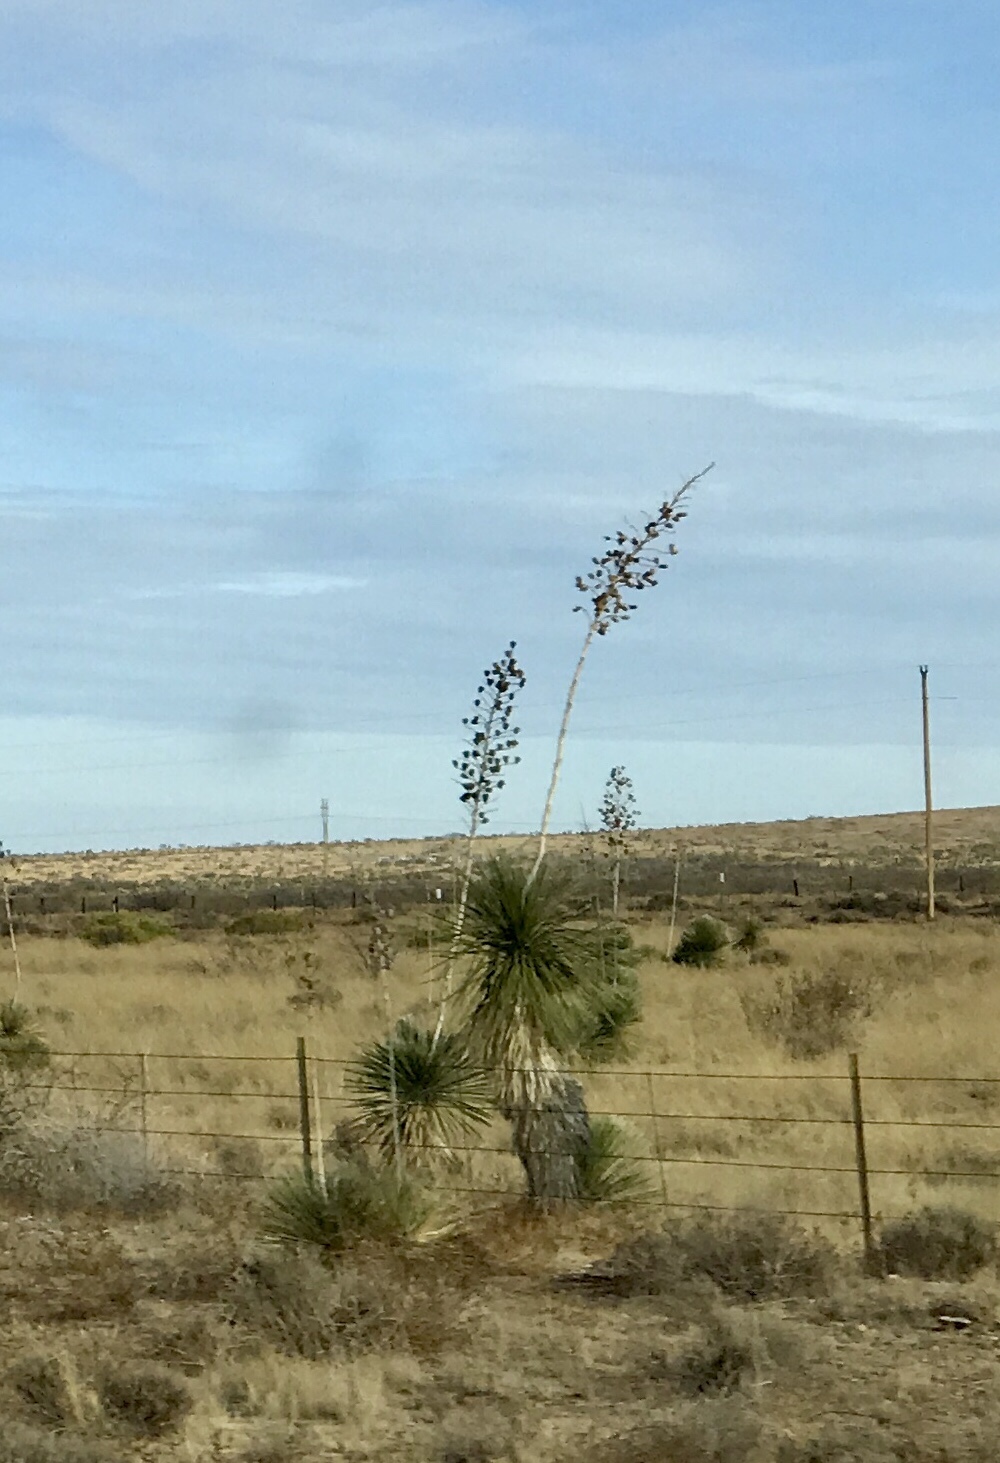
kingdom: Plantae
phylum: Tracheophyta
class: Liliopsida
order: Asparagales
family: Asparagaceae
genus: Yucca
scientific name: Yucca elata
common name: Palmella
